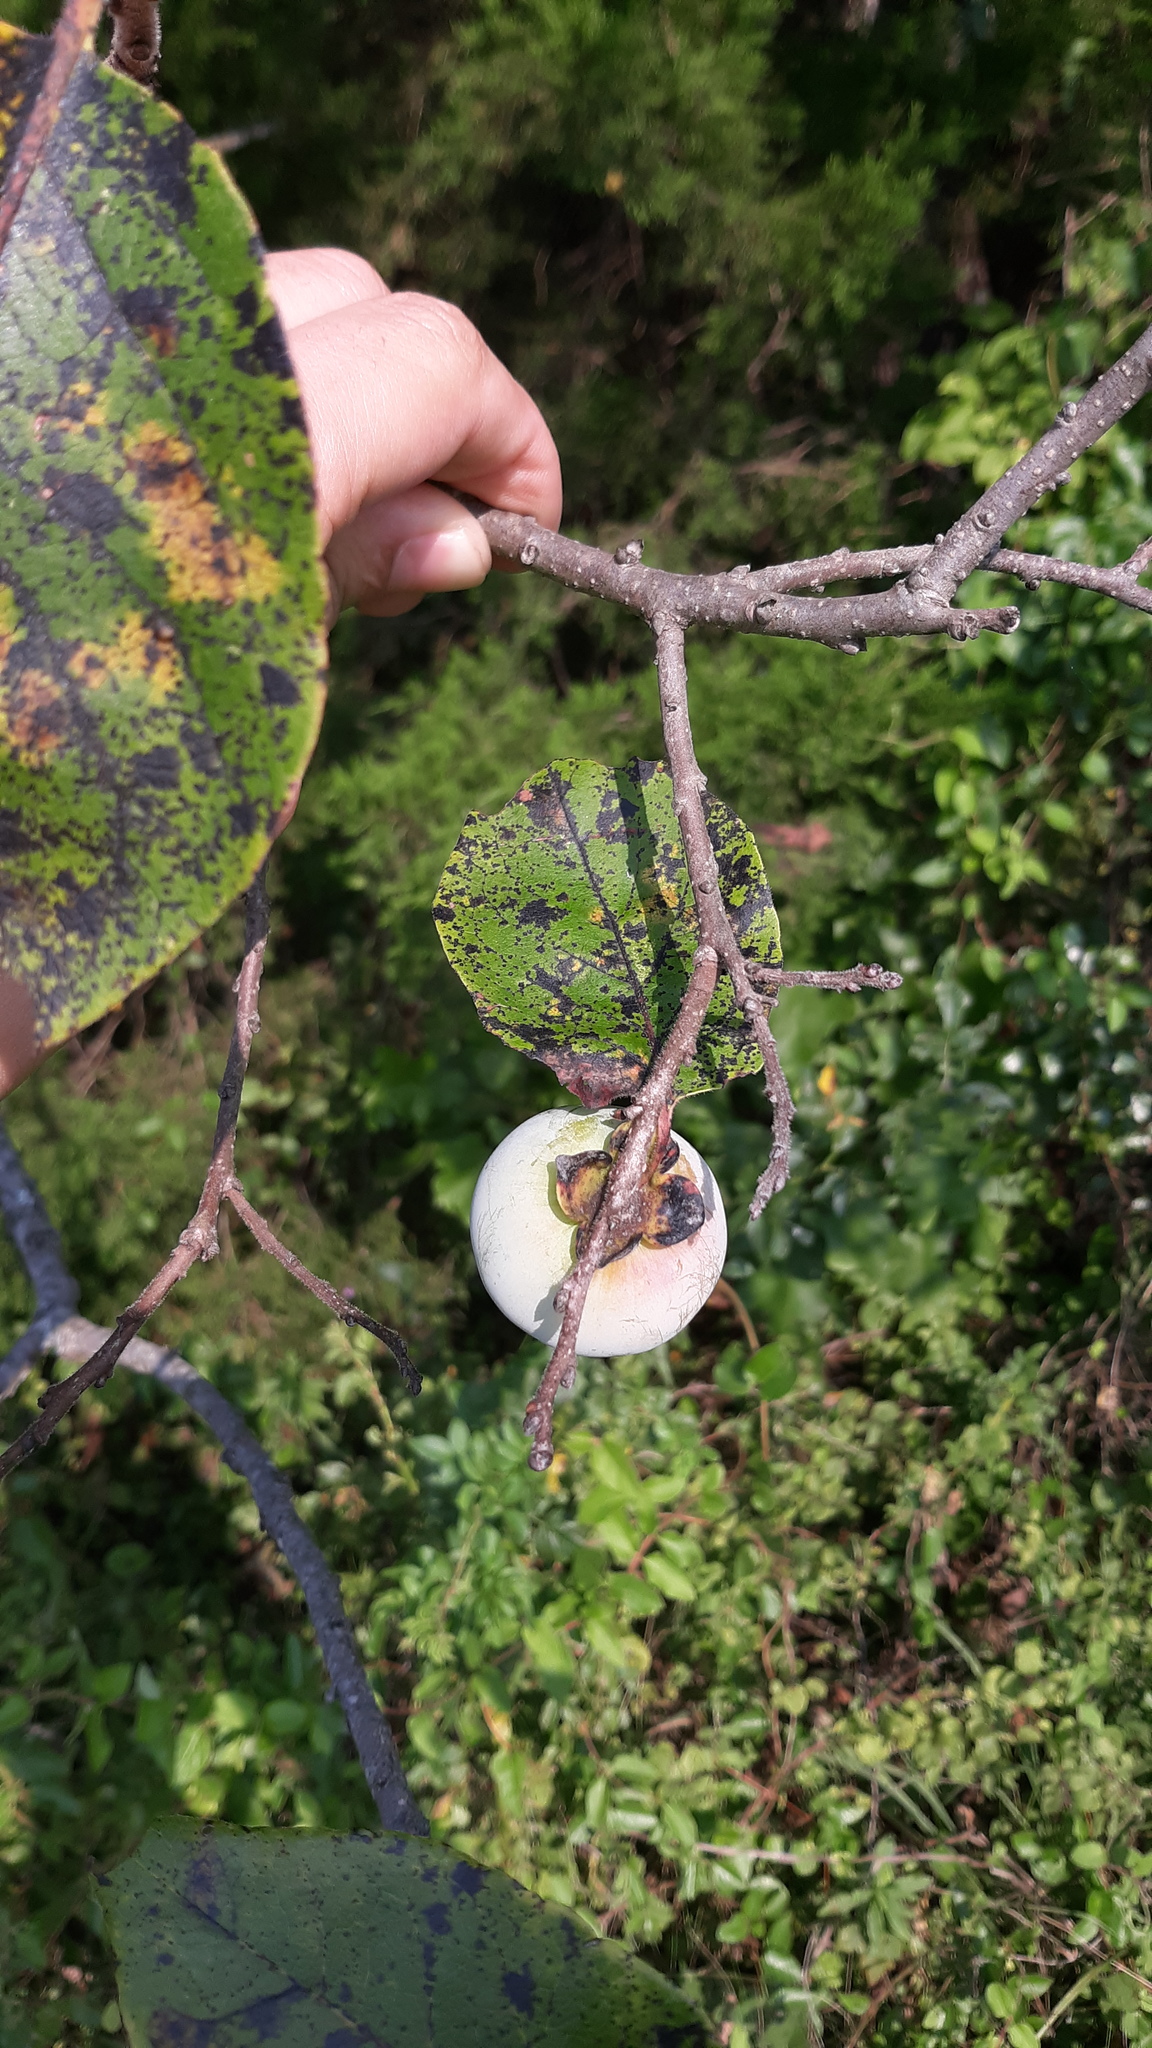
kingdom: Plantae
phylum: Tracheophyta
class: Magnoliopsida
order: Ericales
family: Ebenaceae
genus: Diospyros
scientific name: Diospyros virginiana
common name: Persimmon
